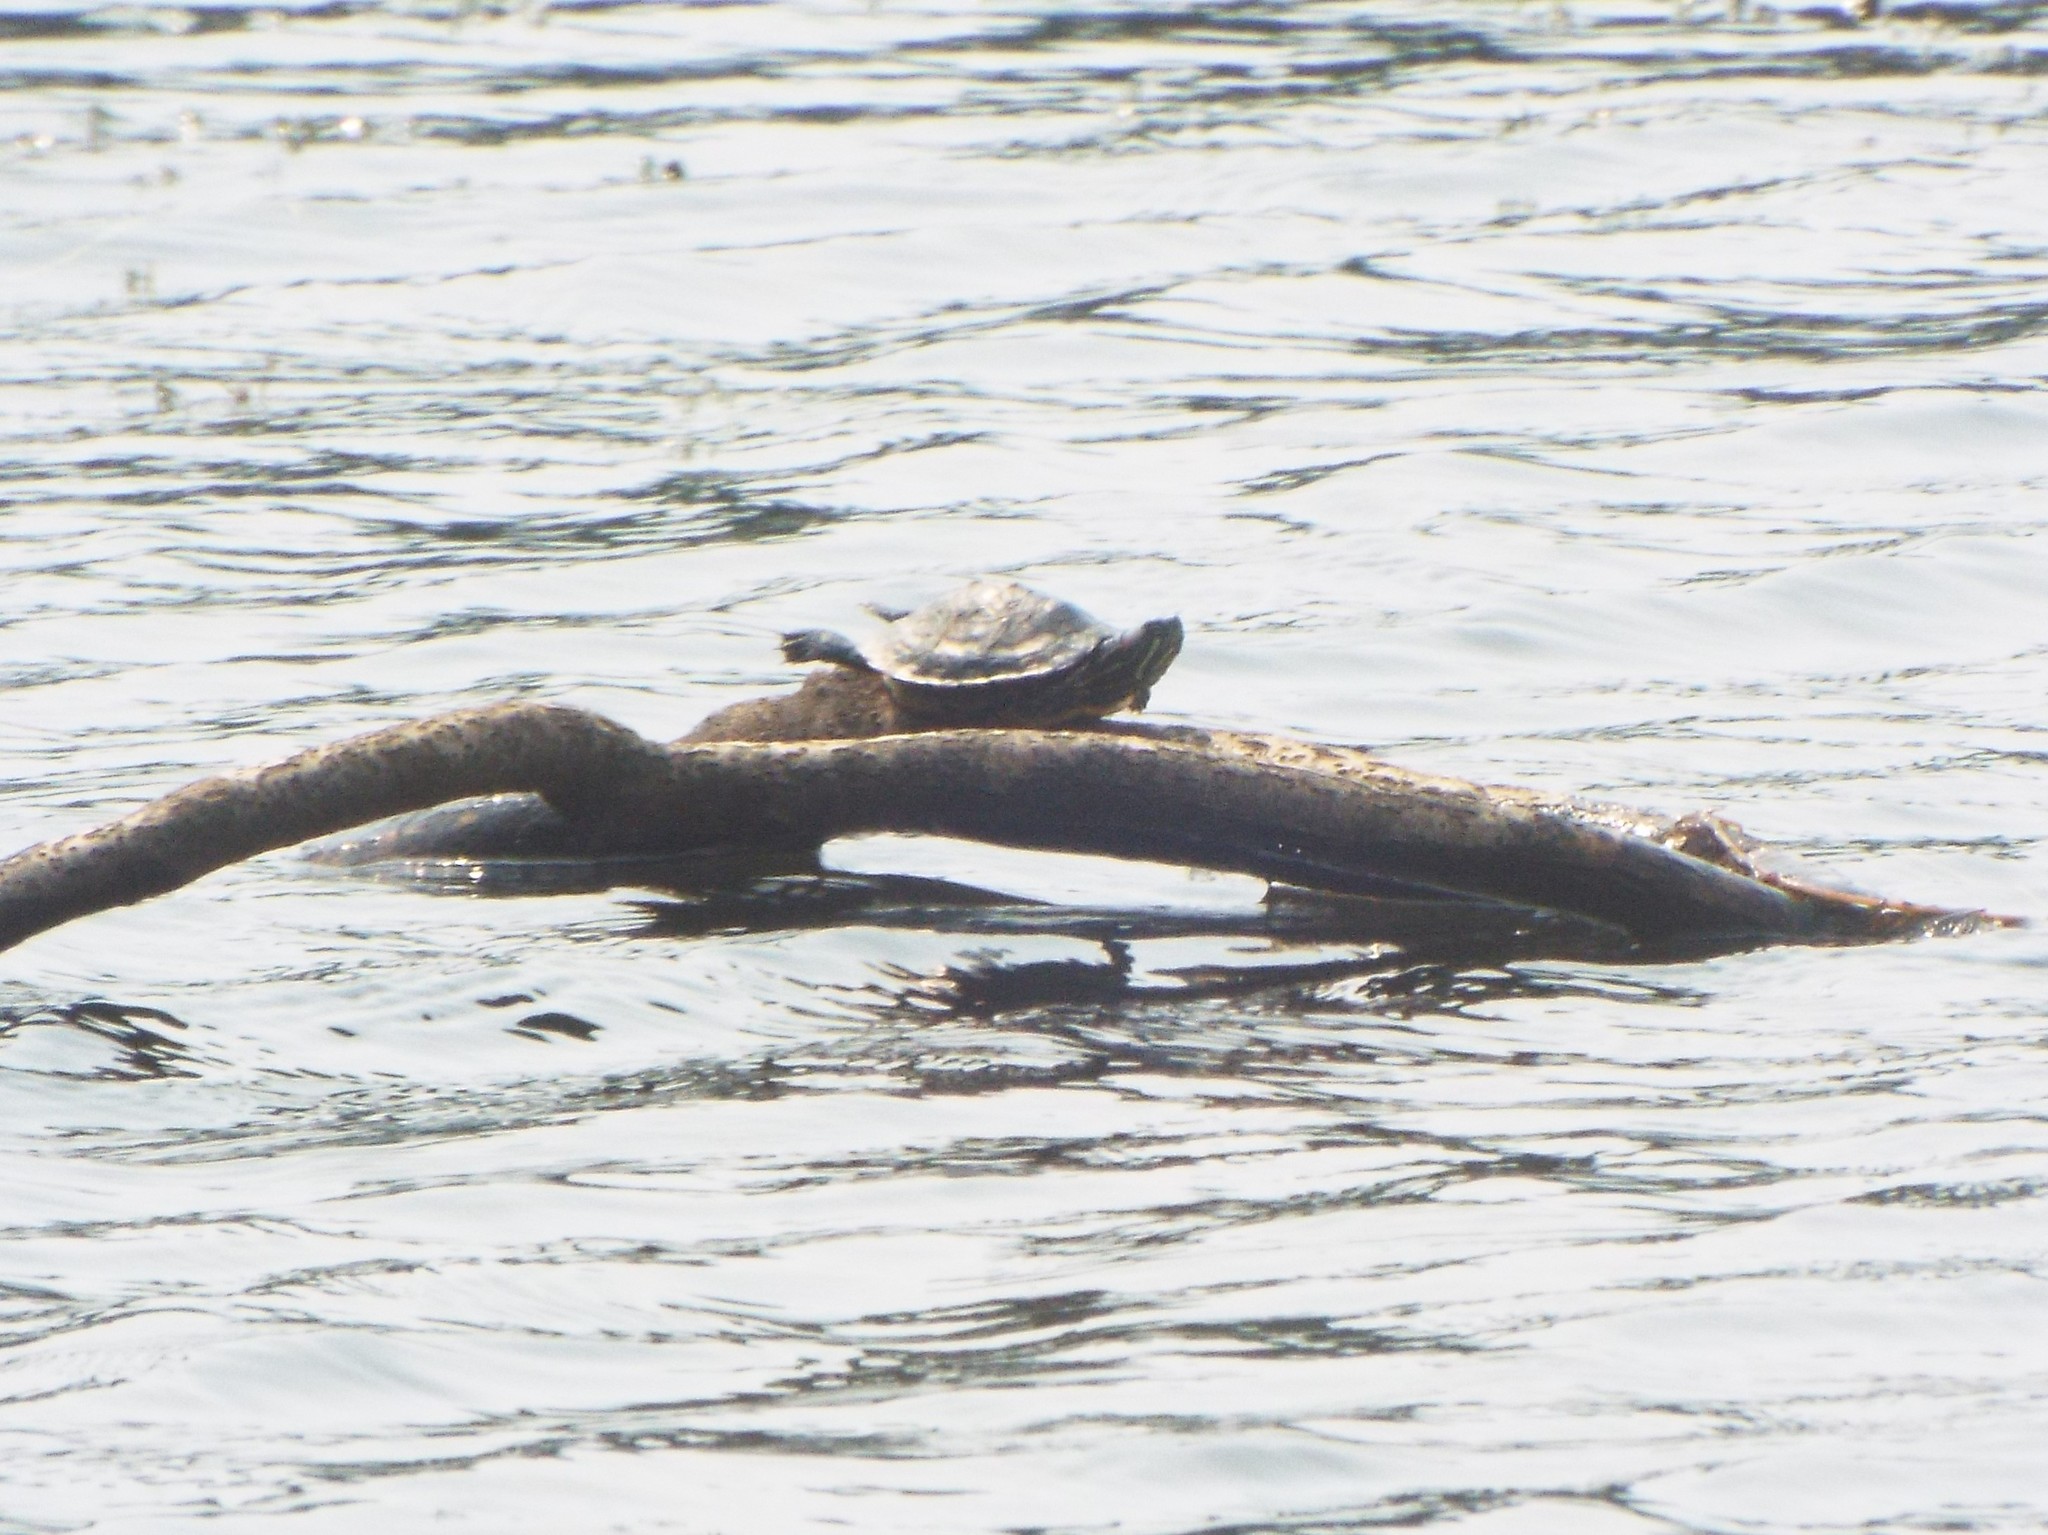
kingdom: Animalia
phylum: Chordata
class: Testudines
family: Emydidae
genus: Trachemys
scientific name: Trachemys scripta
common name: Slider
